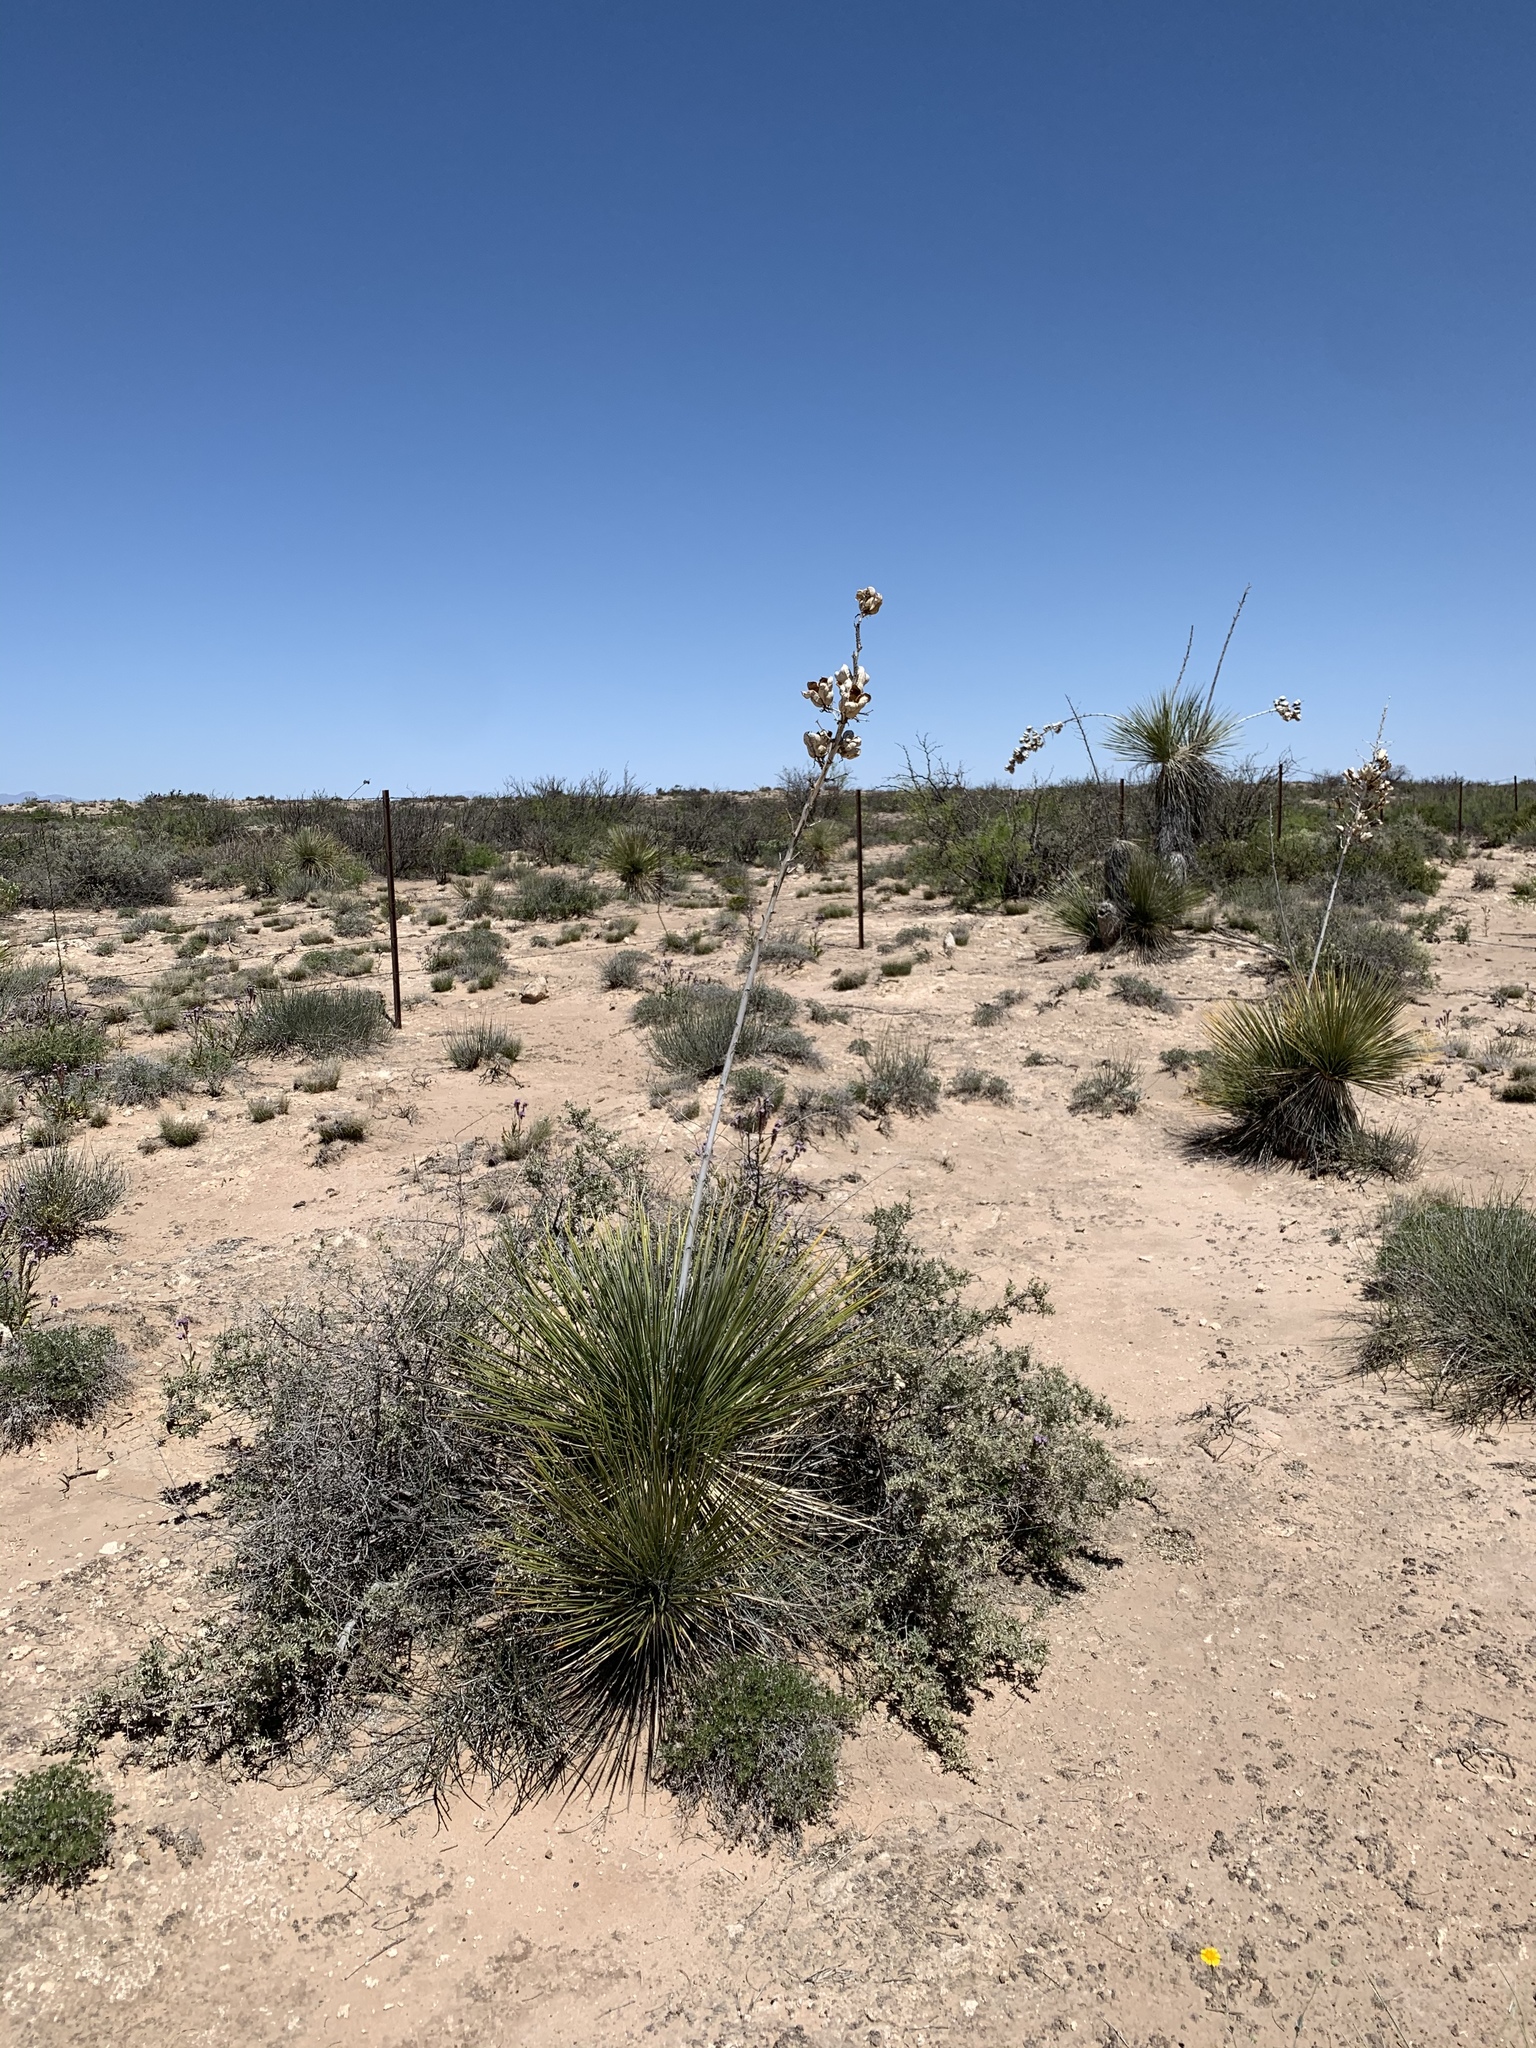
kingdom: Plantae
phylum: Tracheophyta
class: Liliopsida
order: Asparagales
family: Asparagaceae
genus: Yucca
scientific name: Yucca elata
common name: Palmella
